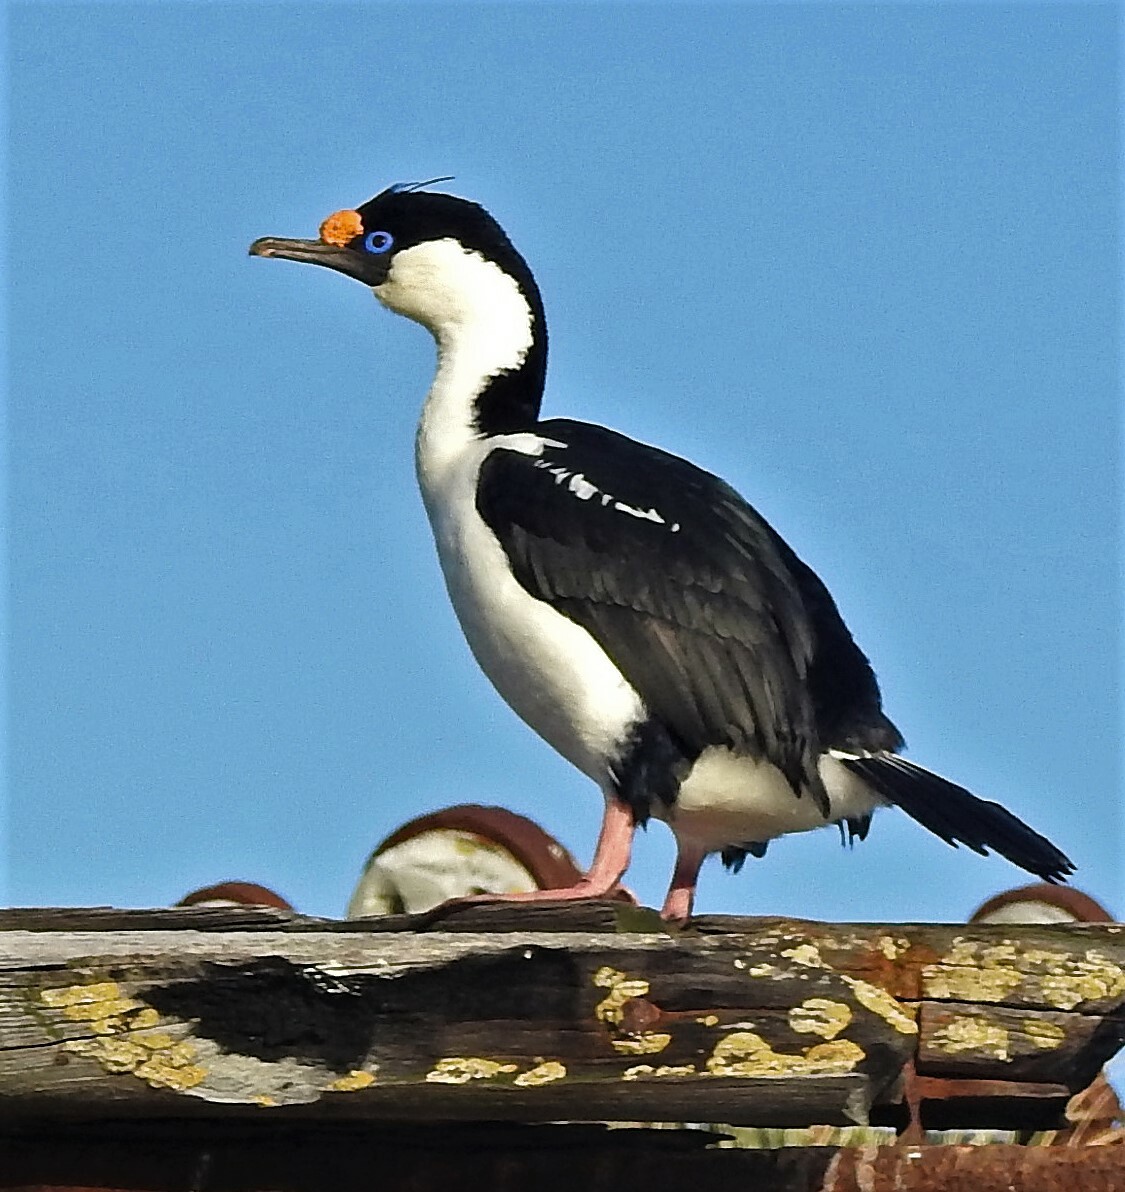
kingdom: Animalia
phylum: Chordata
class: Aves
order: Suliformes
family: Phalacrocoracidae
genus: Leucocarbo
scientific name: Leucocarbo atriceps
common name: Imperial shag
